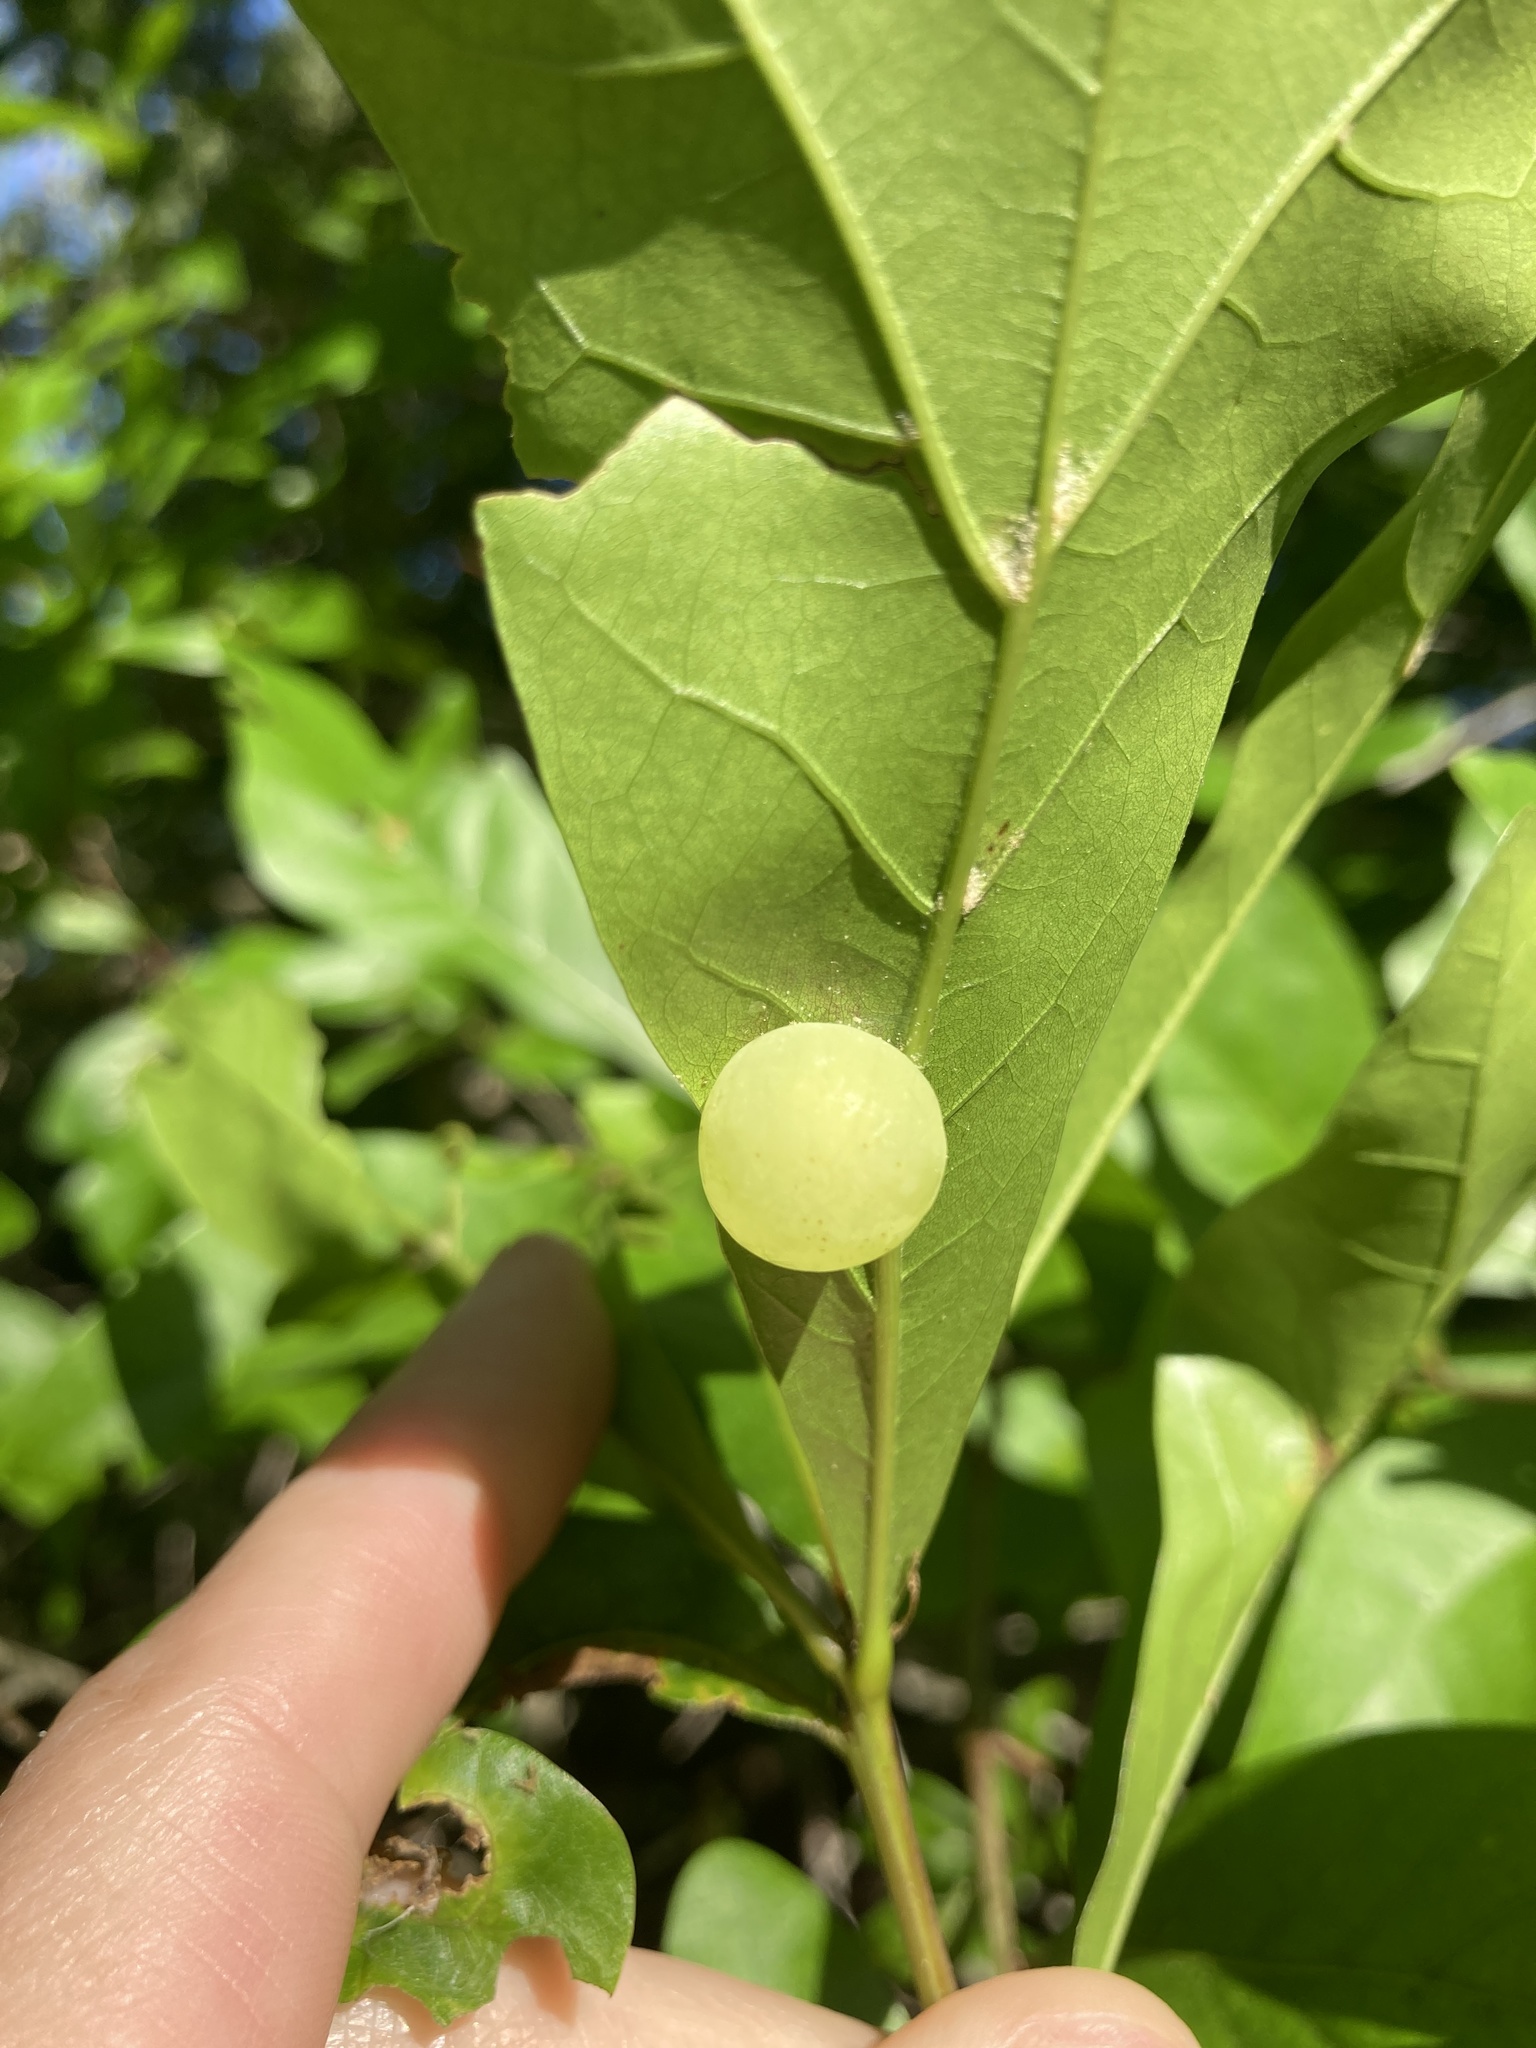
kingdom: Animalia
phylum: Arthropoda
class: Insecta
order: Hymenoptera
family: Cynipidae
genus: Amphibolips
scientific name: Amphibolips
